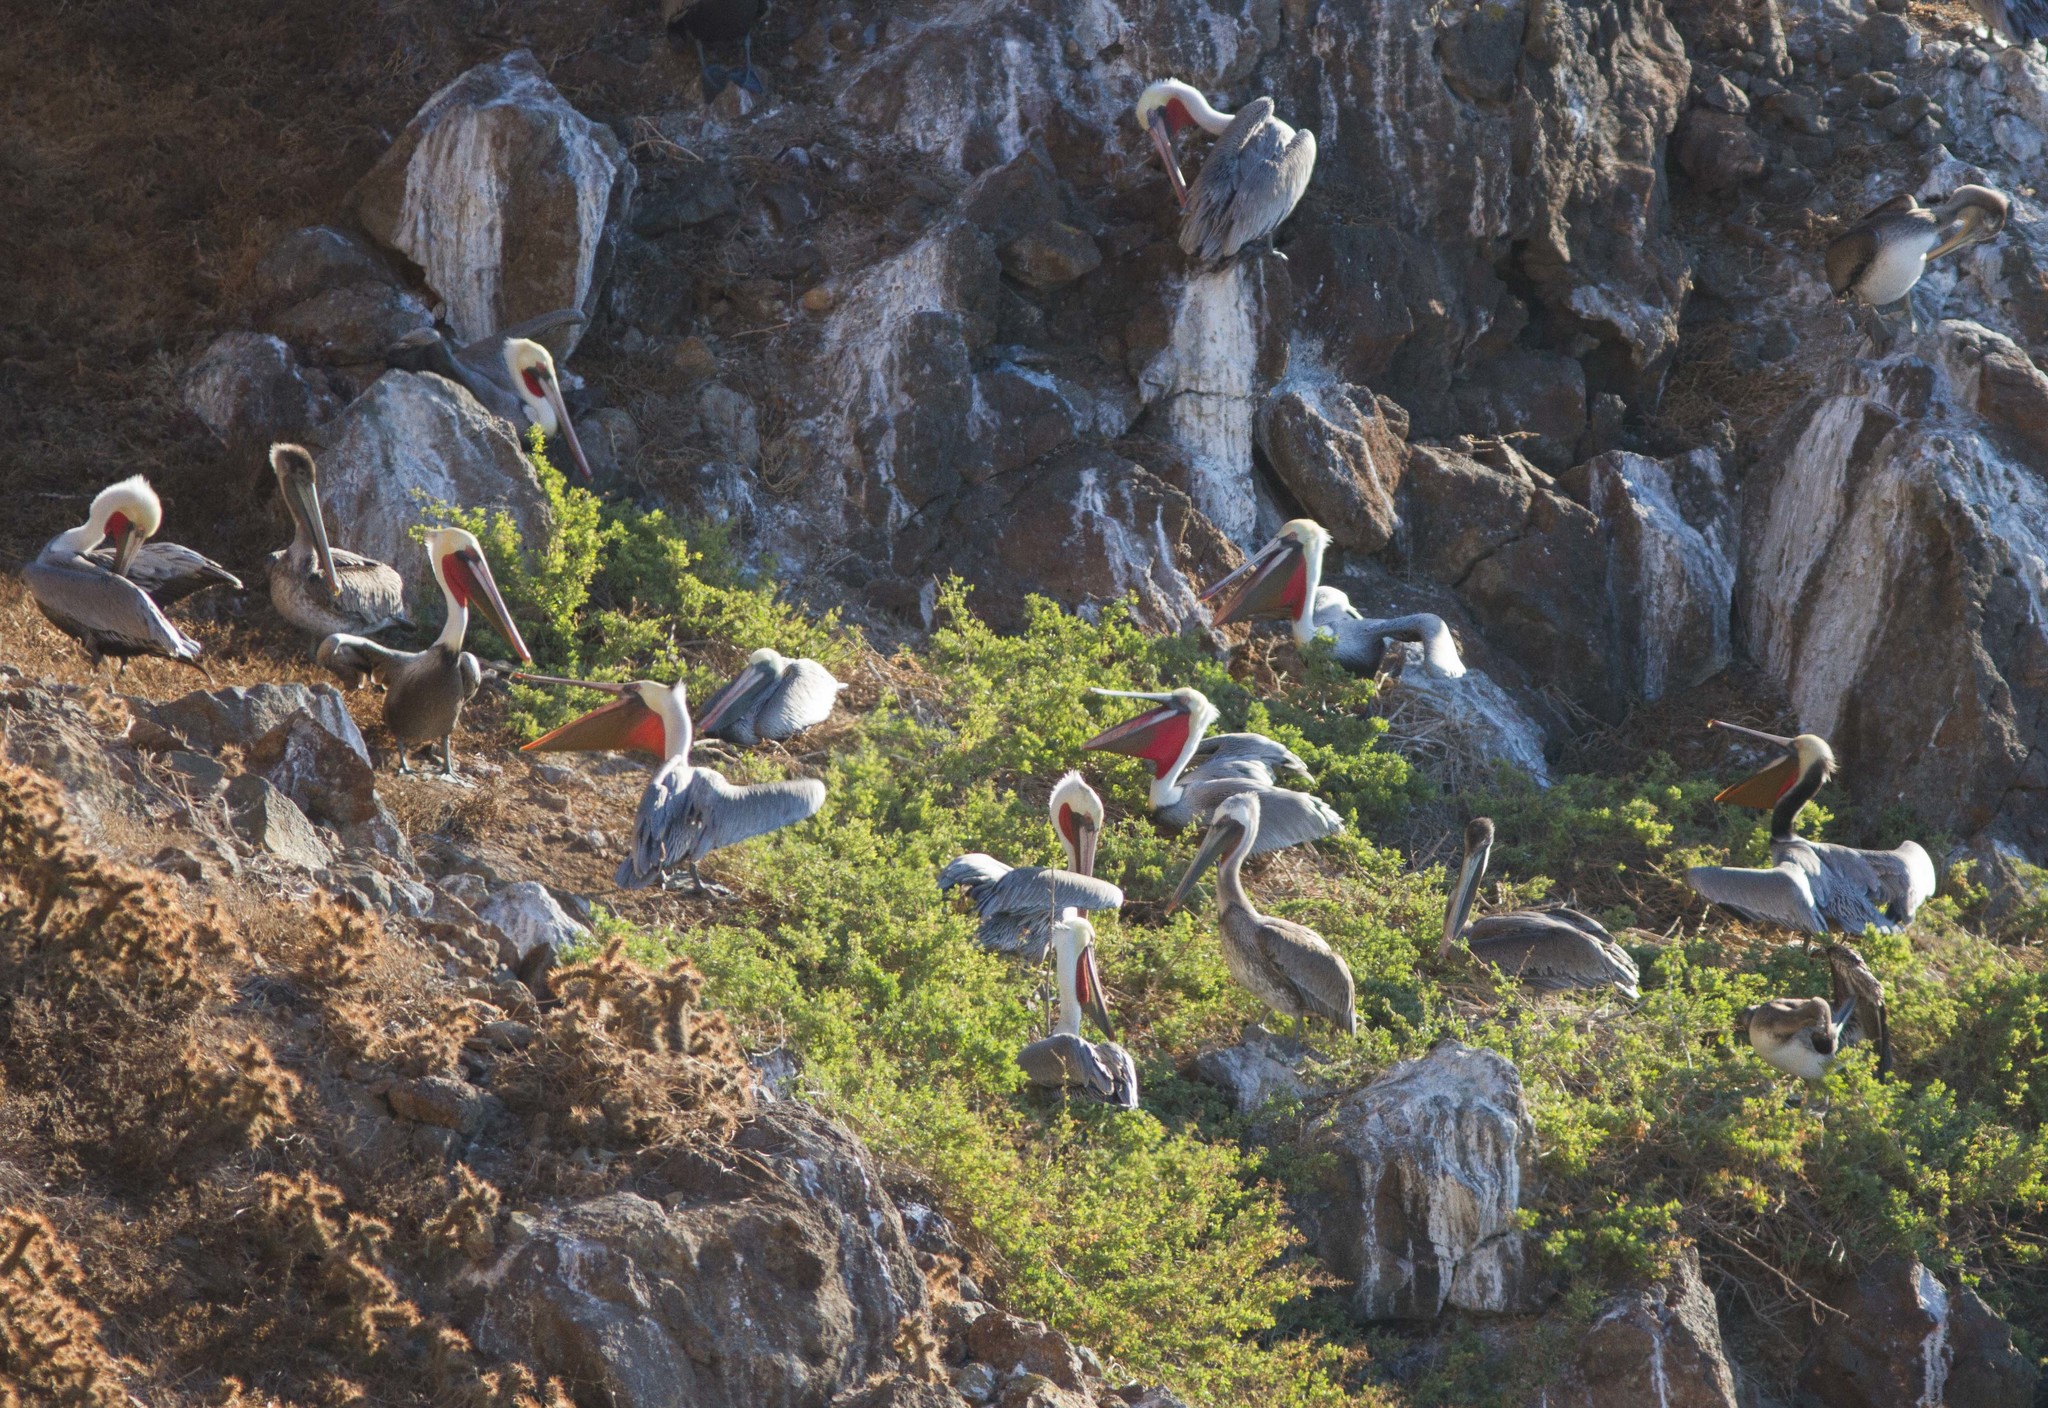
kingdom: Animalia
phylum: Chordata
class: Aves
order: Pelecaniformes
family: Pelecanidae
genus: Pelecanus
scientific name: Pelecanus occidentalis
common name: Brown pelican
